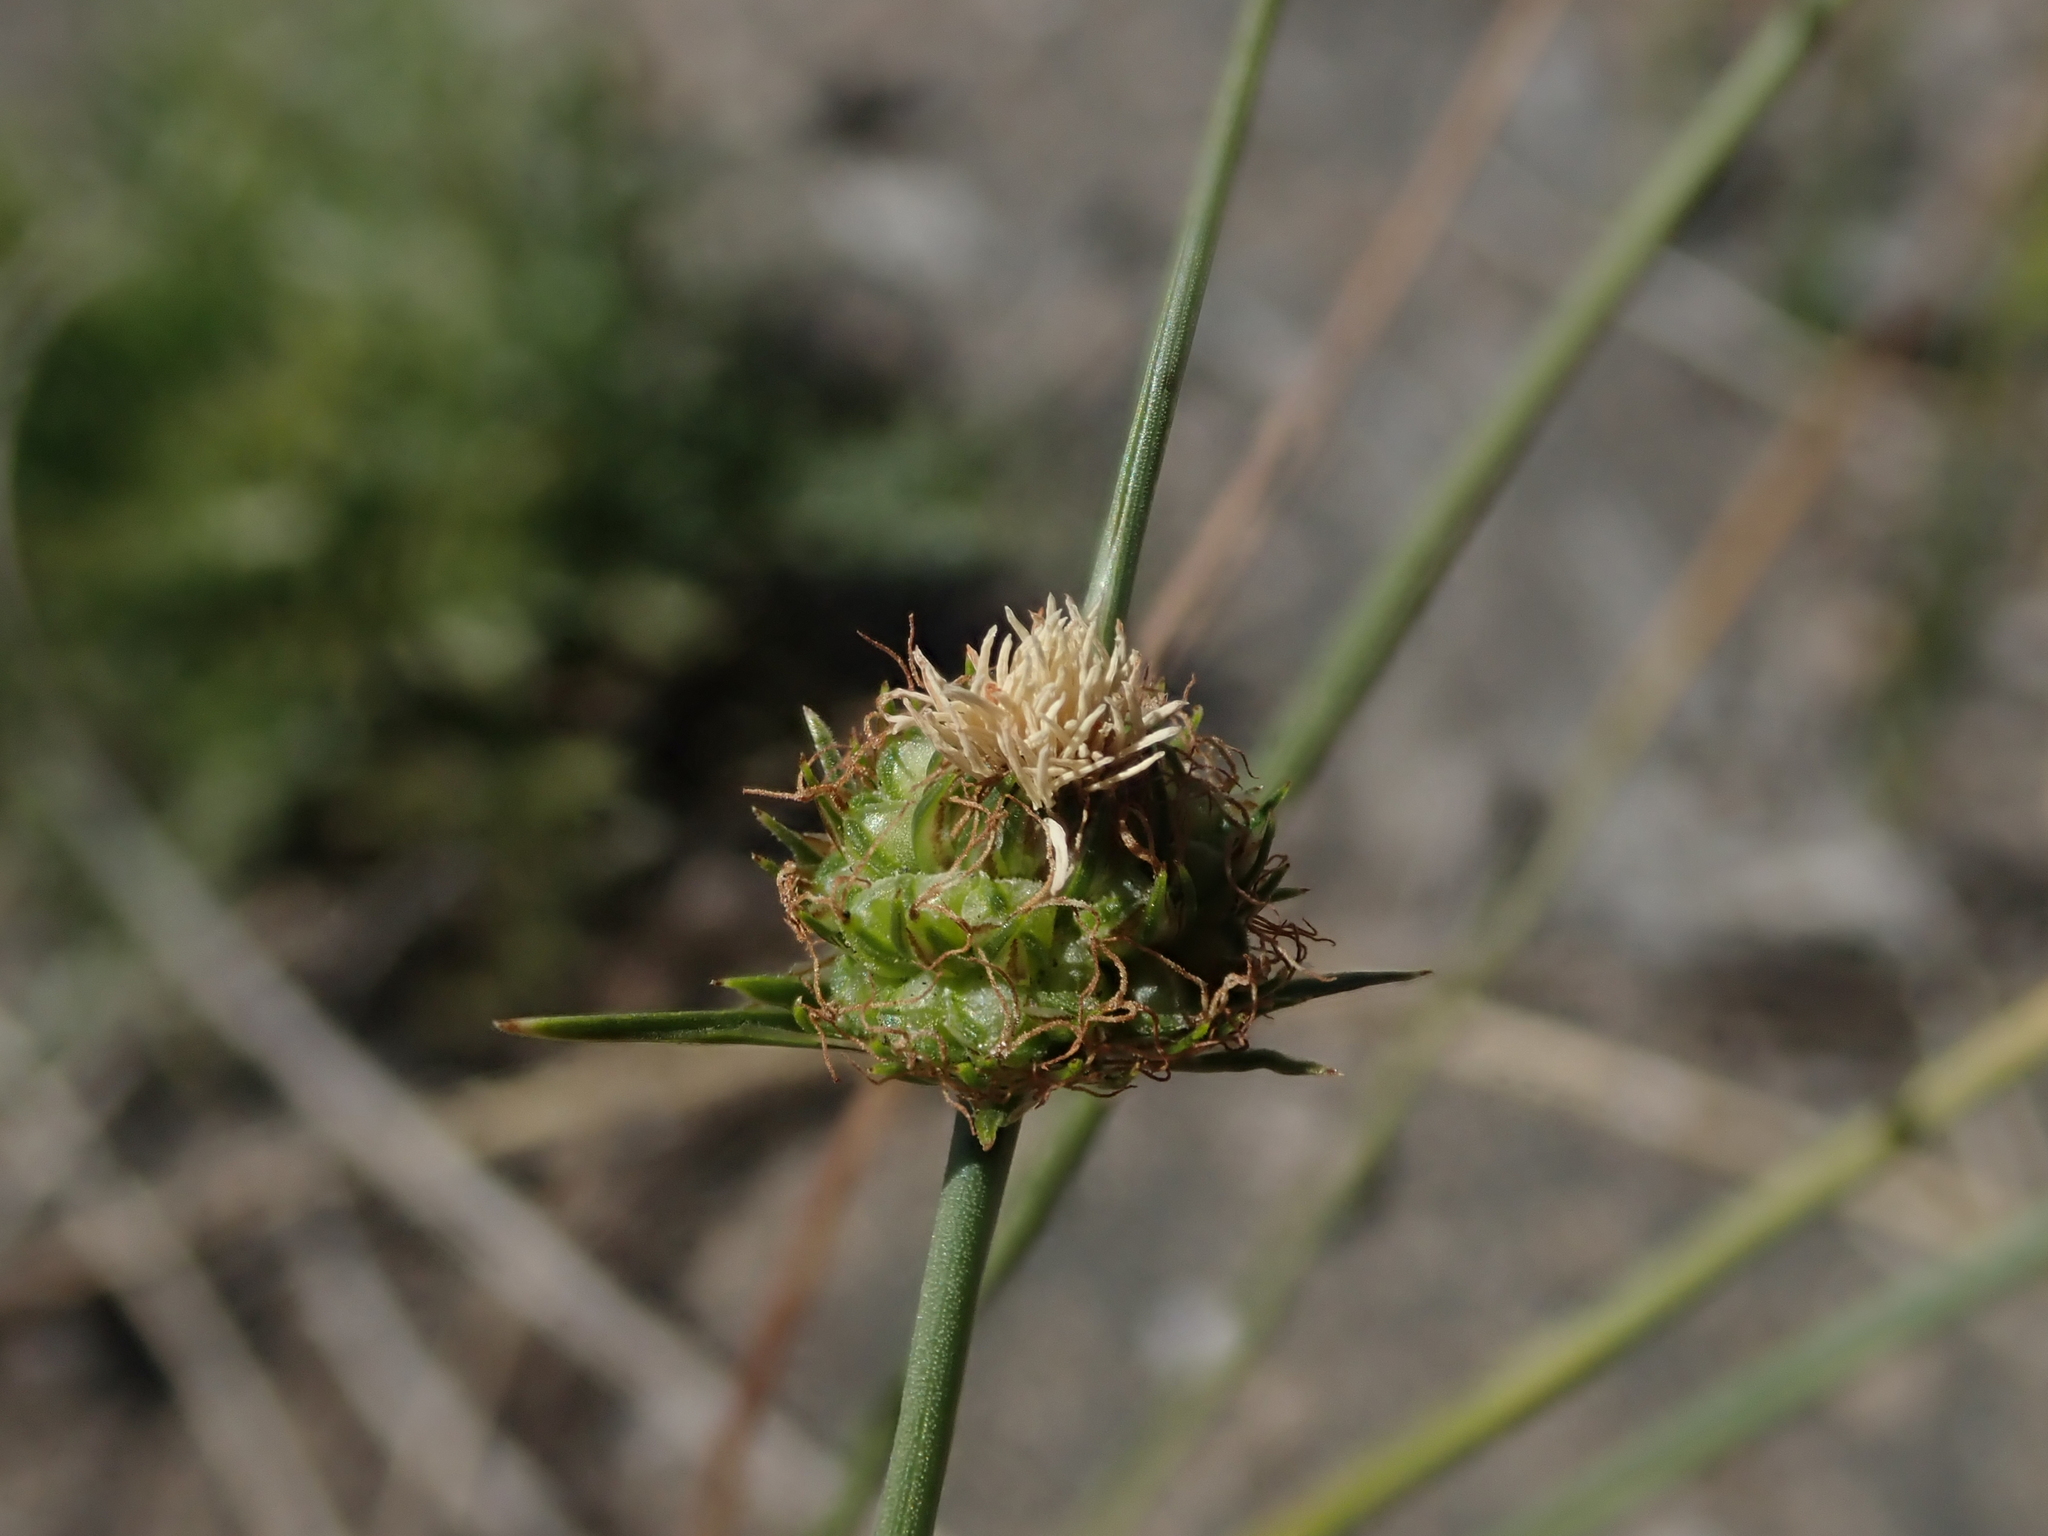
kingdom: Plantae
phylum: Tracheophyta
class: Liliopsida
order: Poales
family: Cyperaceae
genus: Carex
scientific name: Carex andina
